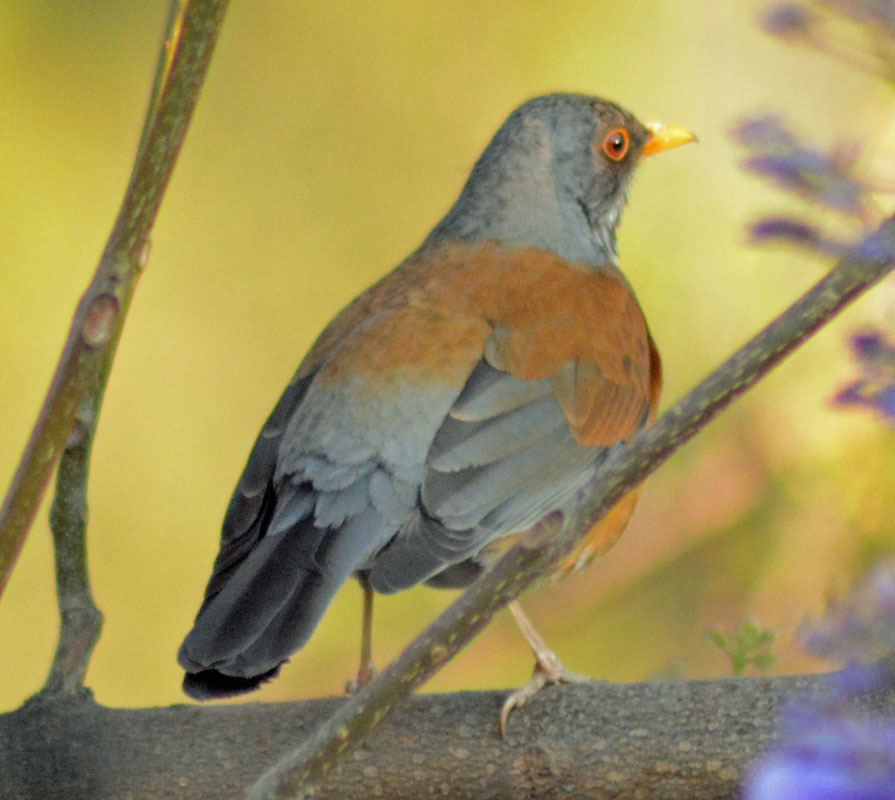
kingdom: Animalia
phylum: Chordata
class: Aves
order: Passeriformes
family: Turdidae
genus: Turdus
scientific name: Turdus rufopalliatus
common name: Rufous-backed robin
